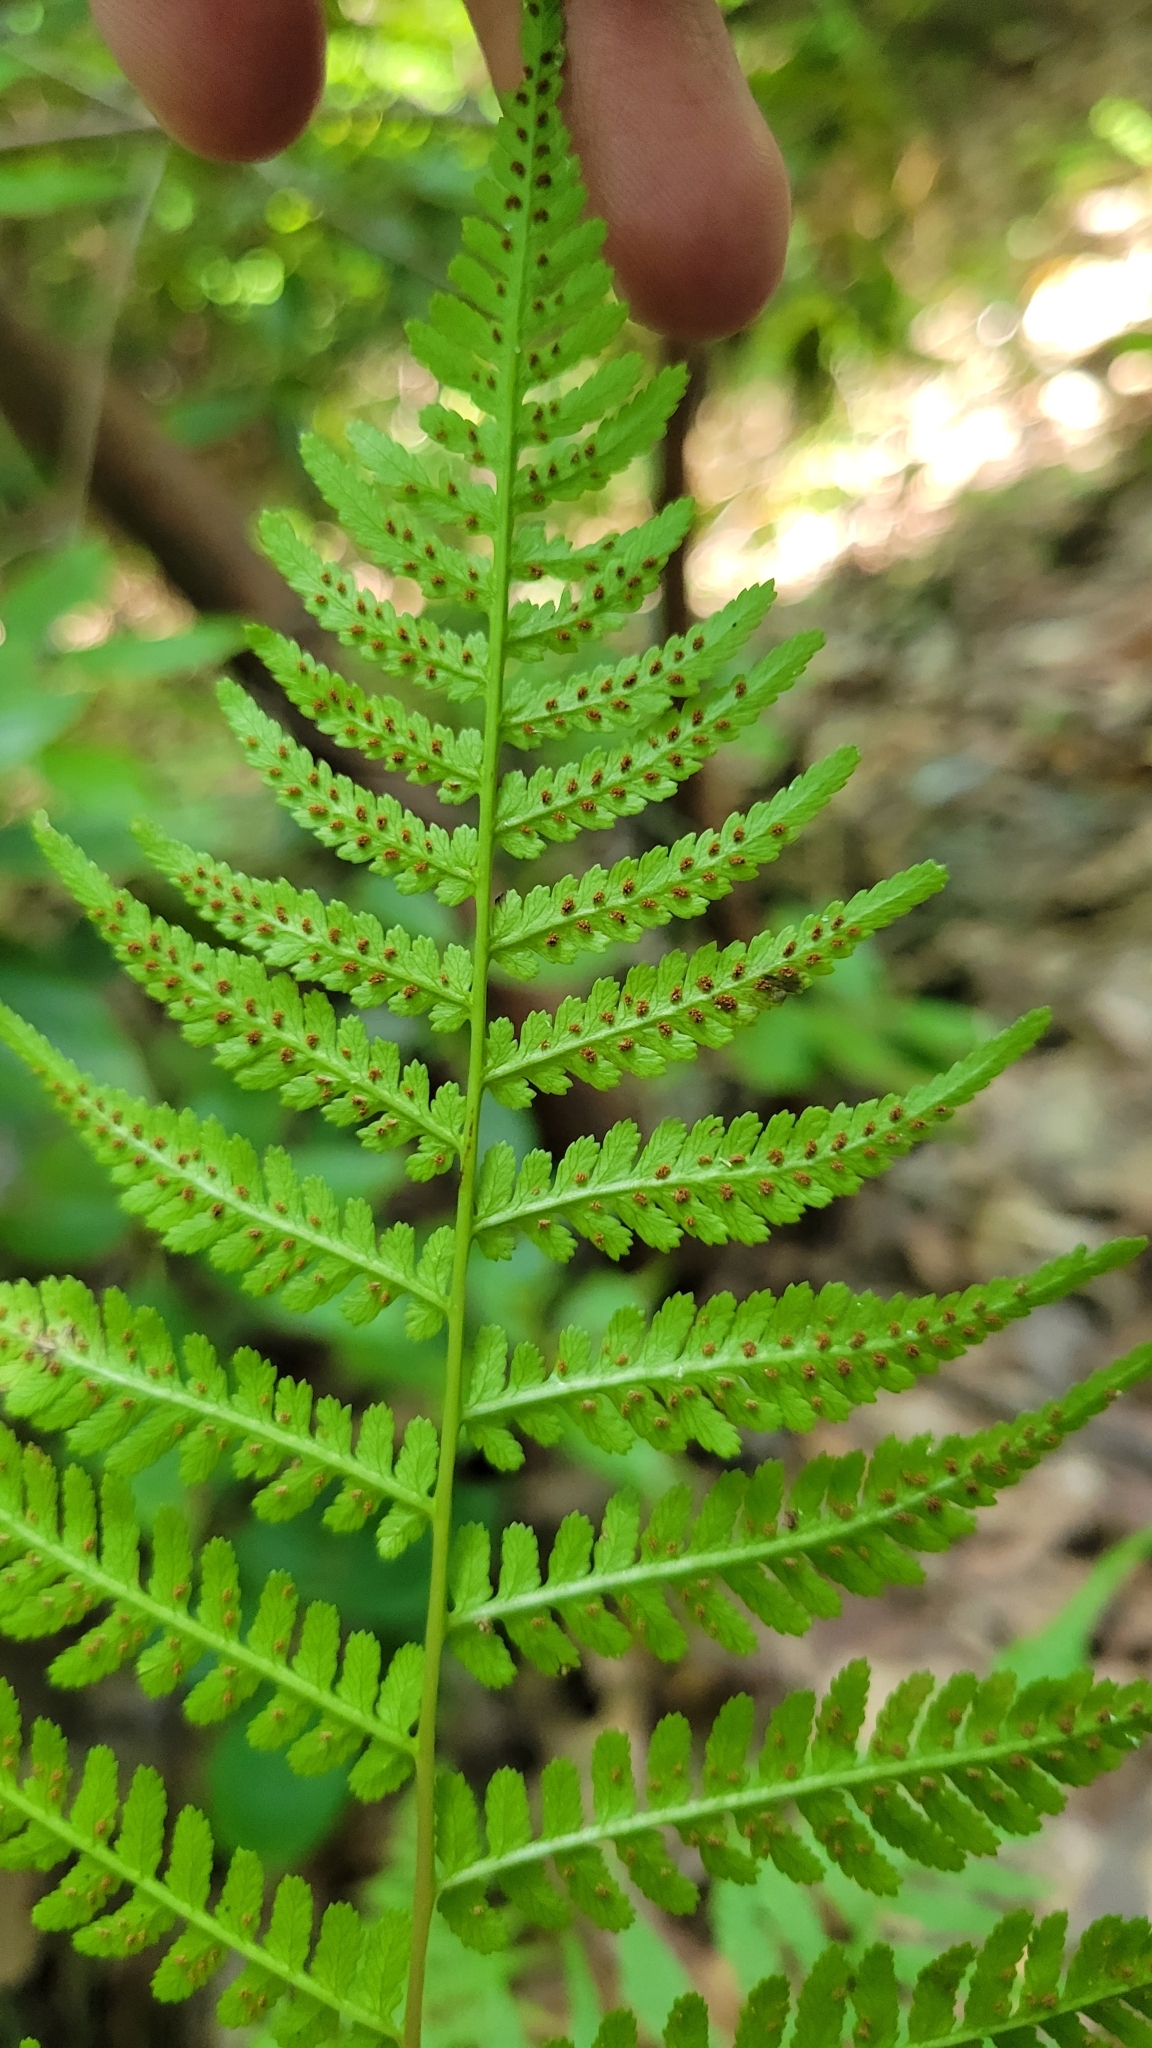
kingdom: Plantae
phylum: Tracheophyta
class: Polypodiopsida
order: Polypodiales
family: Athyriaceae
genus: Athyrium
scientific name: Athyrium asplenioides
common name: Southern lady fern
